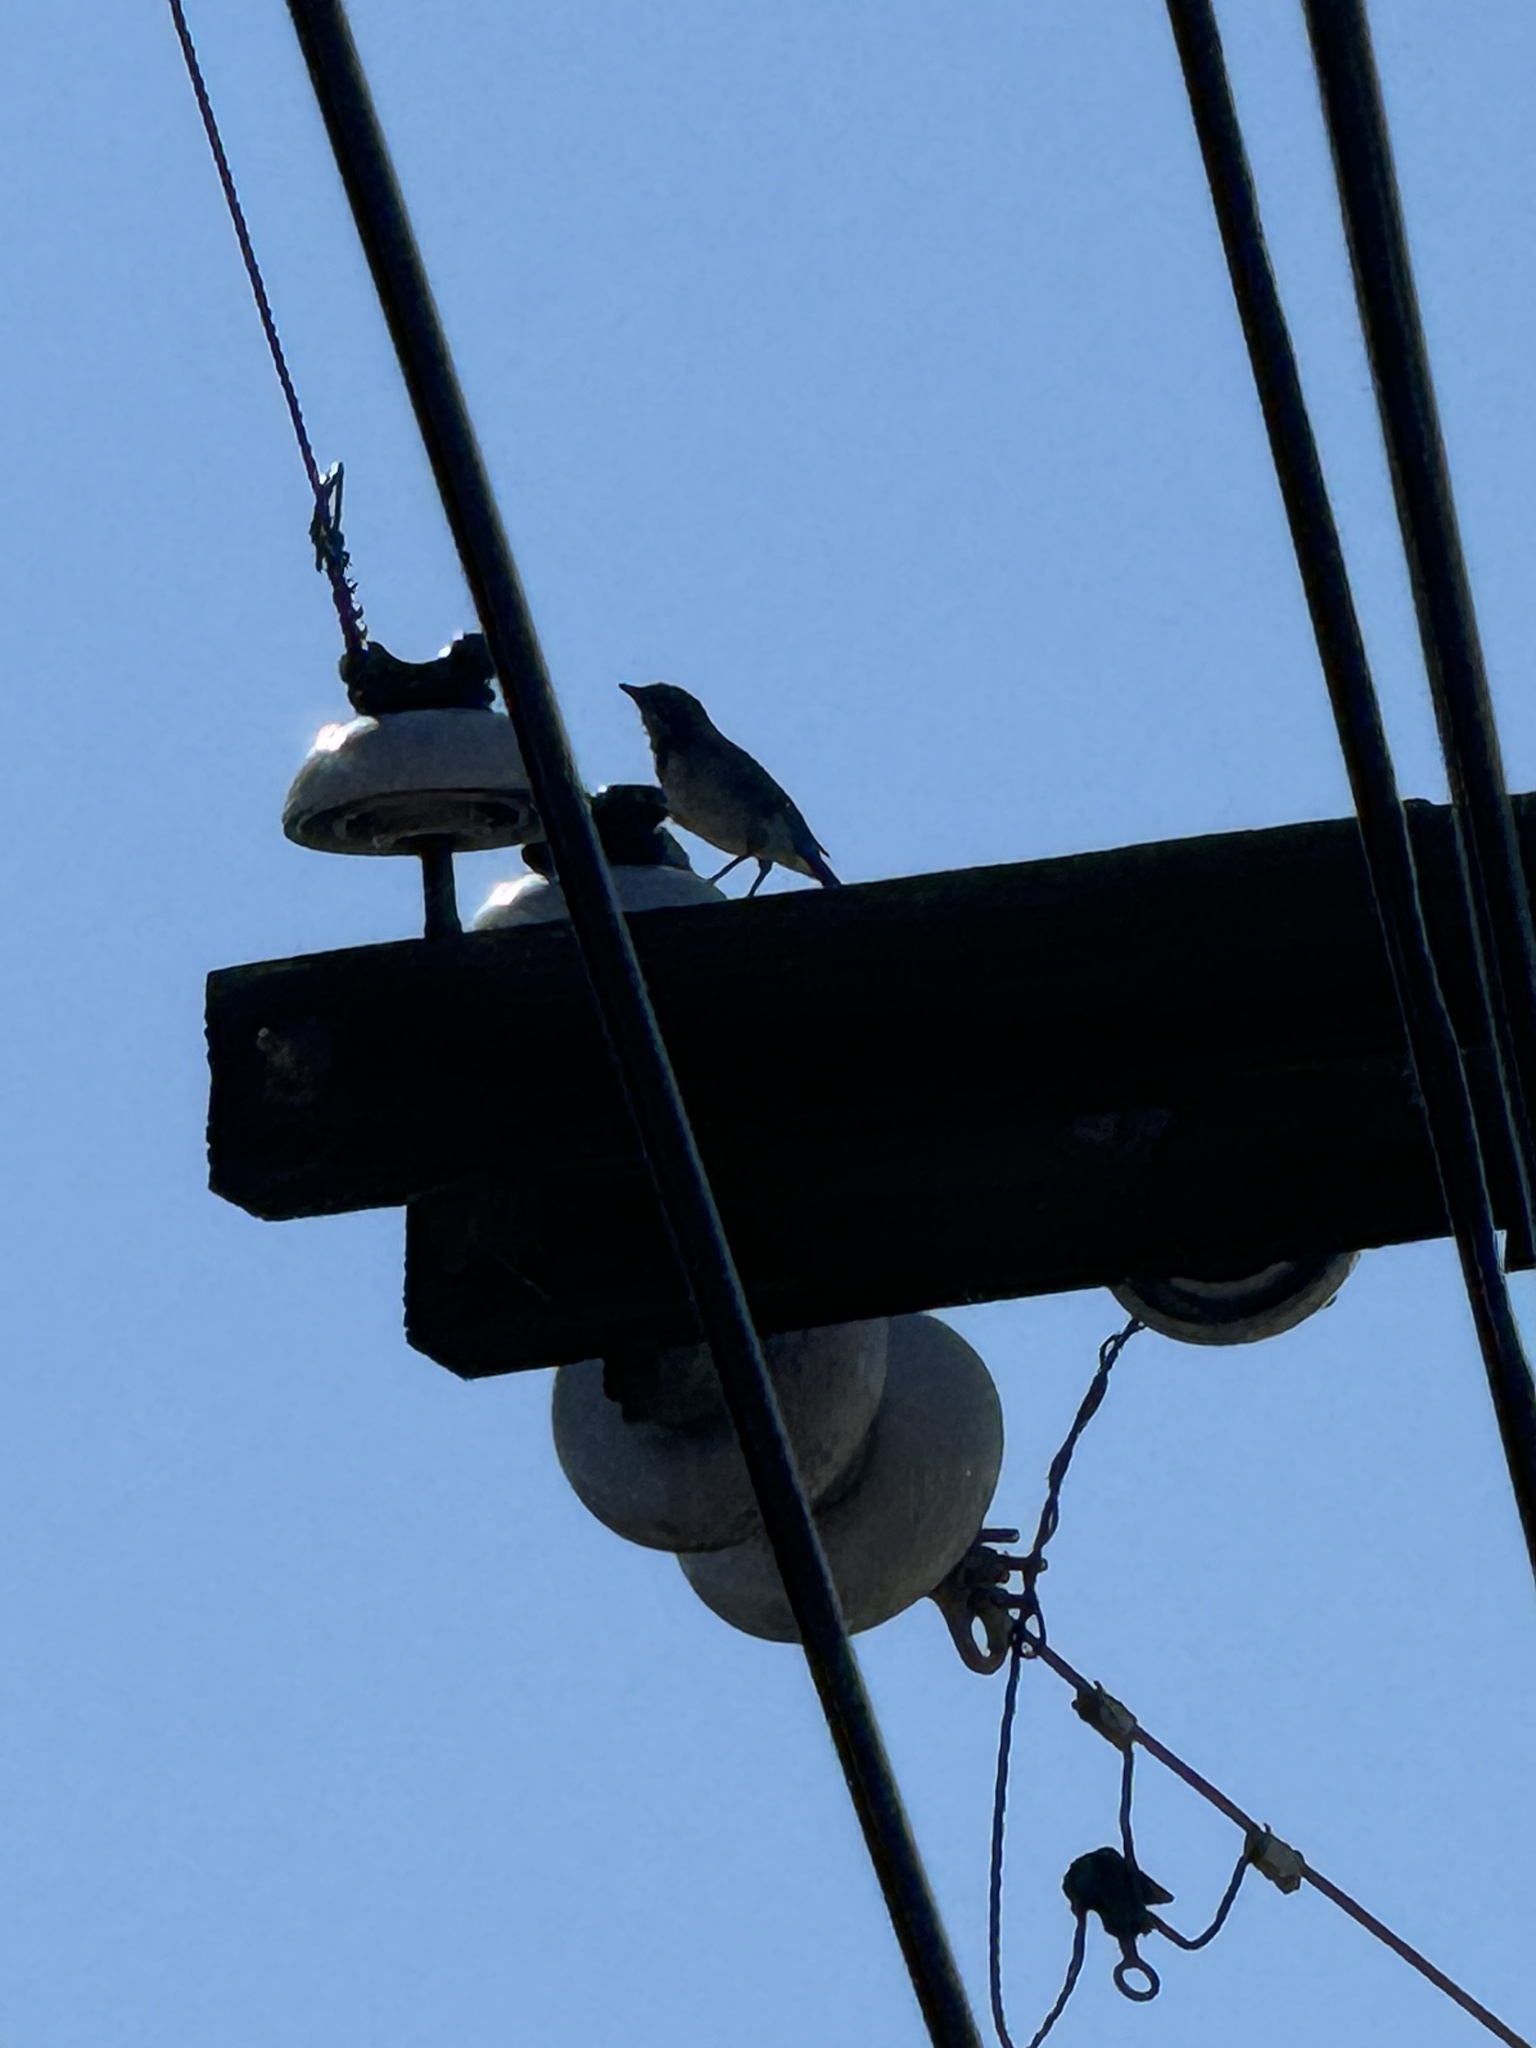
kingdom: Animalia
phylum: Chordata
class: Aves
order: Passeriformes
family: Corvidae
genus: Aphelocoma
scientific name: Aphelocoma californica
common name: California scrub-jay
